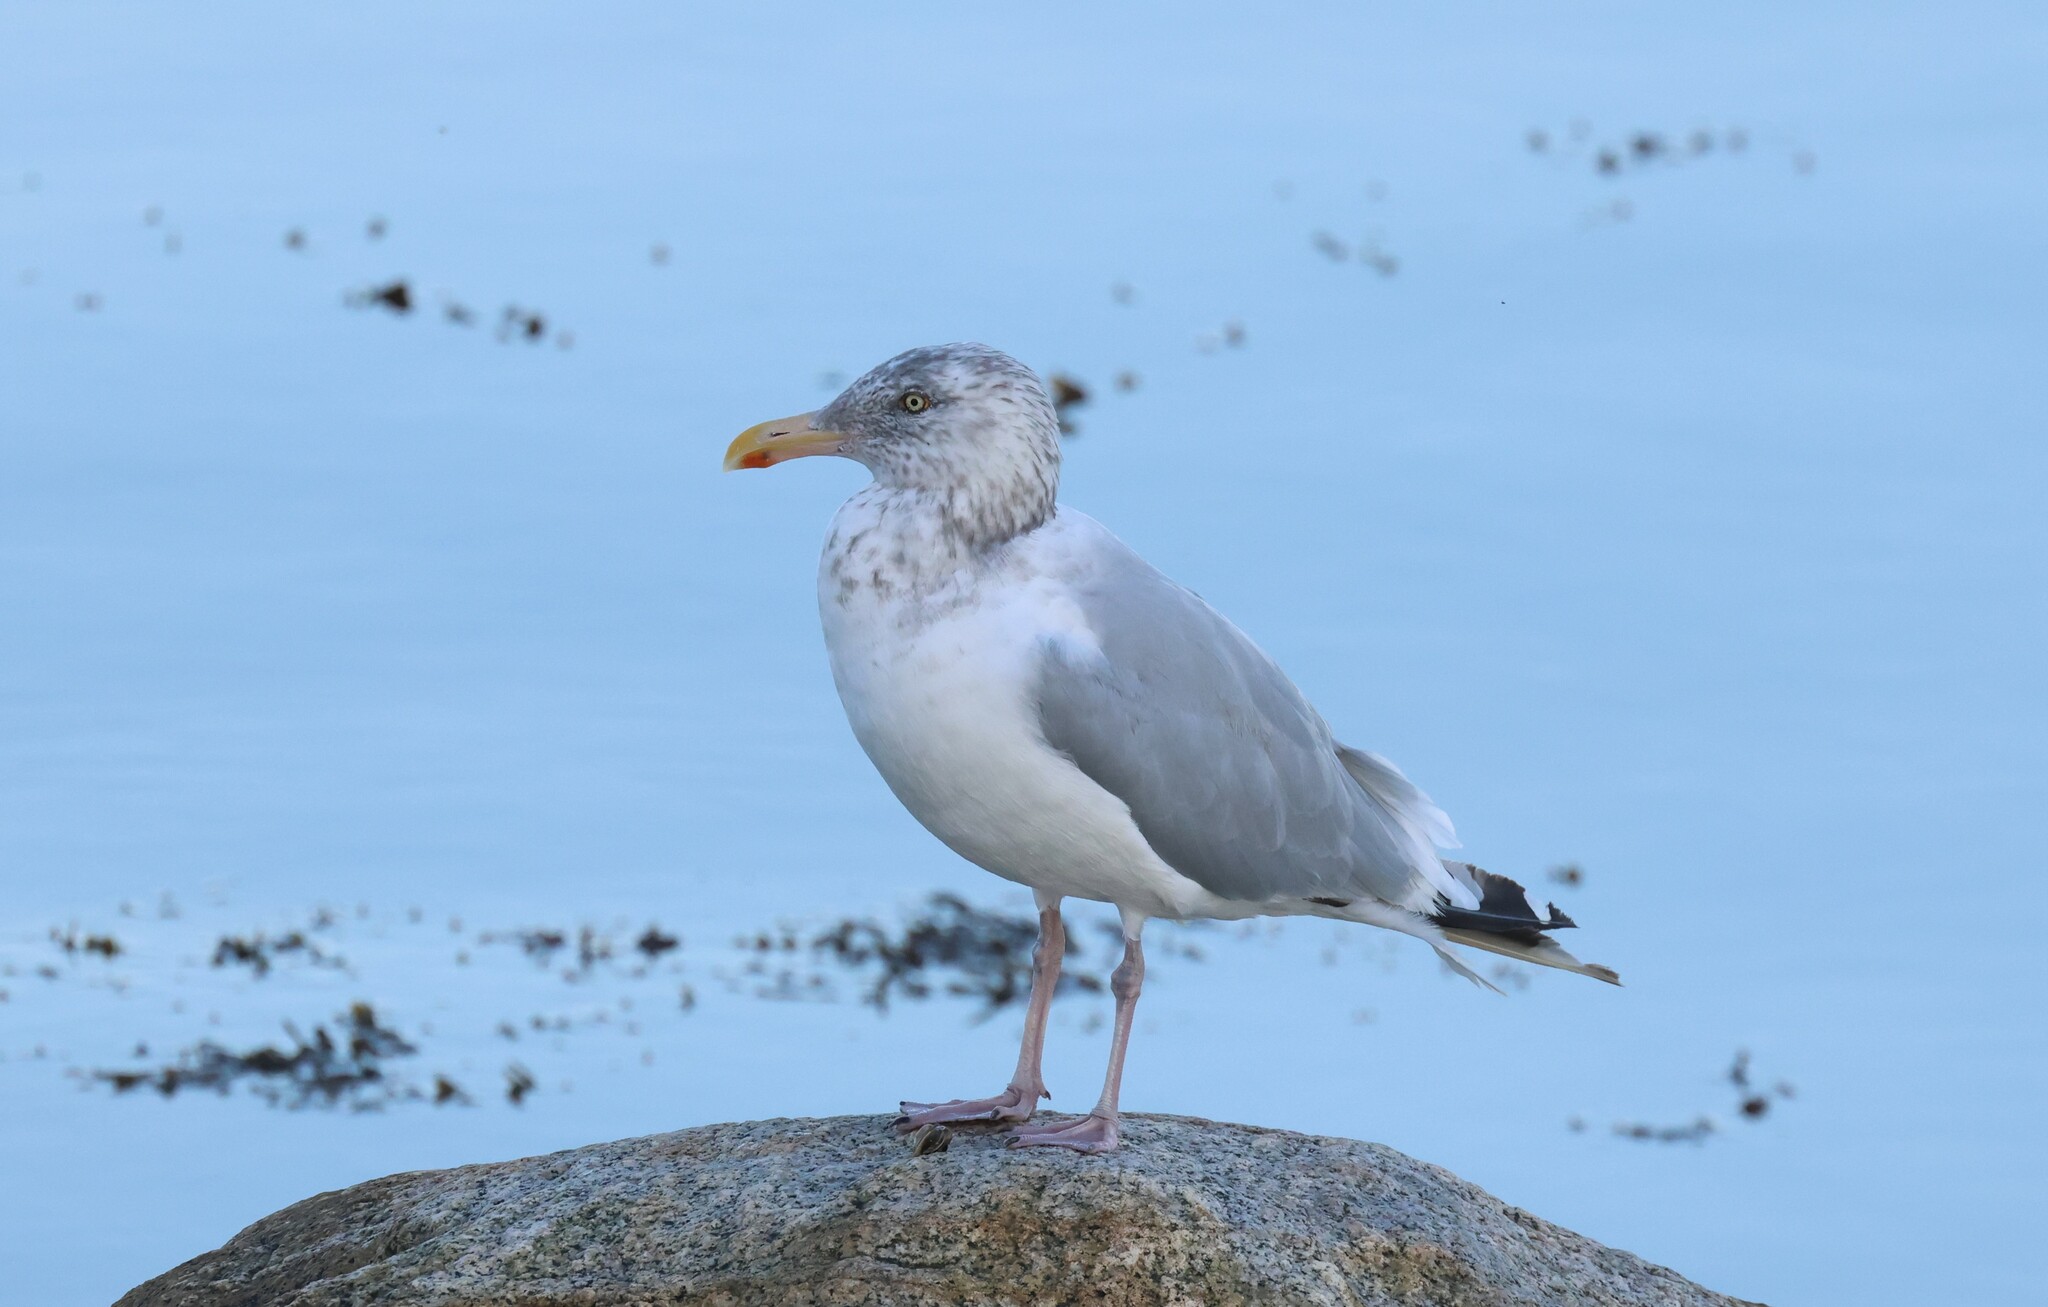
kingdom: Animalia
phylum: Chordata
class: Aves
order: Charadriiformes
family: Laridae
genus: Larus
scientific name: Larus argentatus
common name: Herring gull
